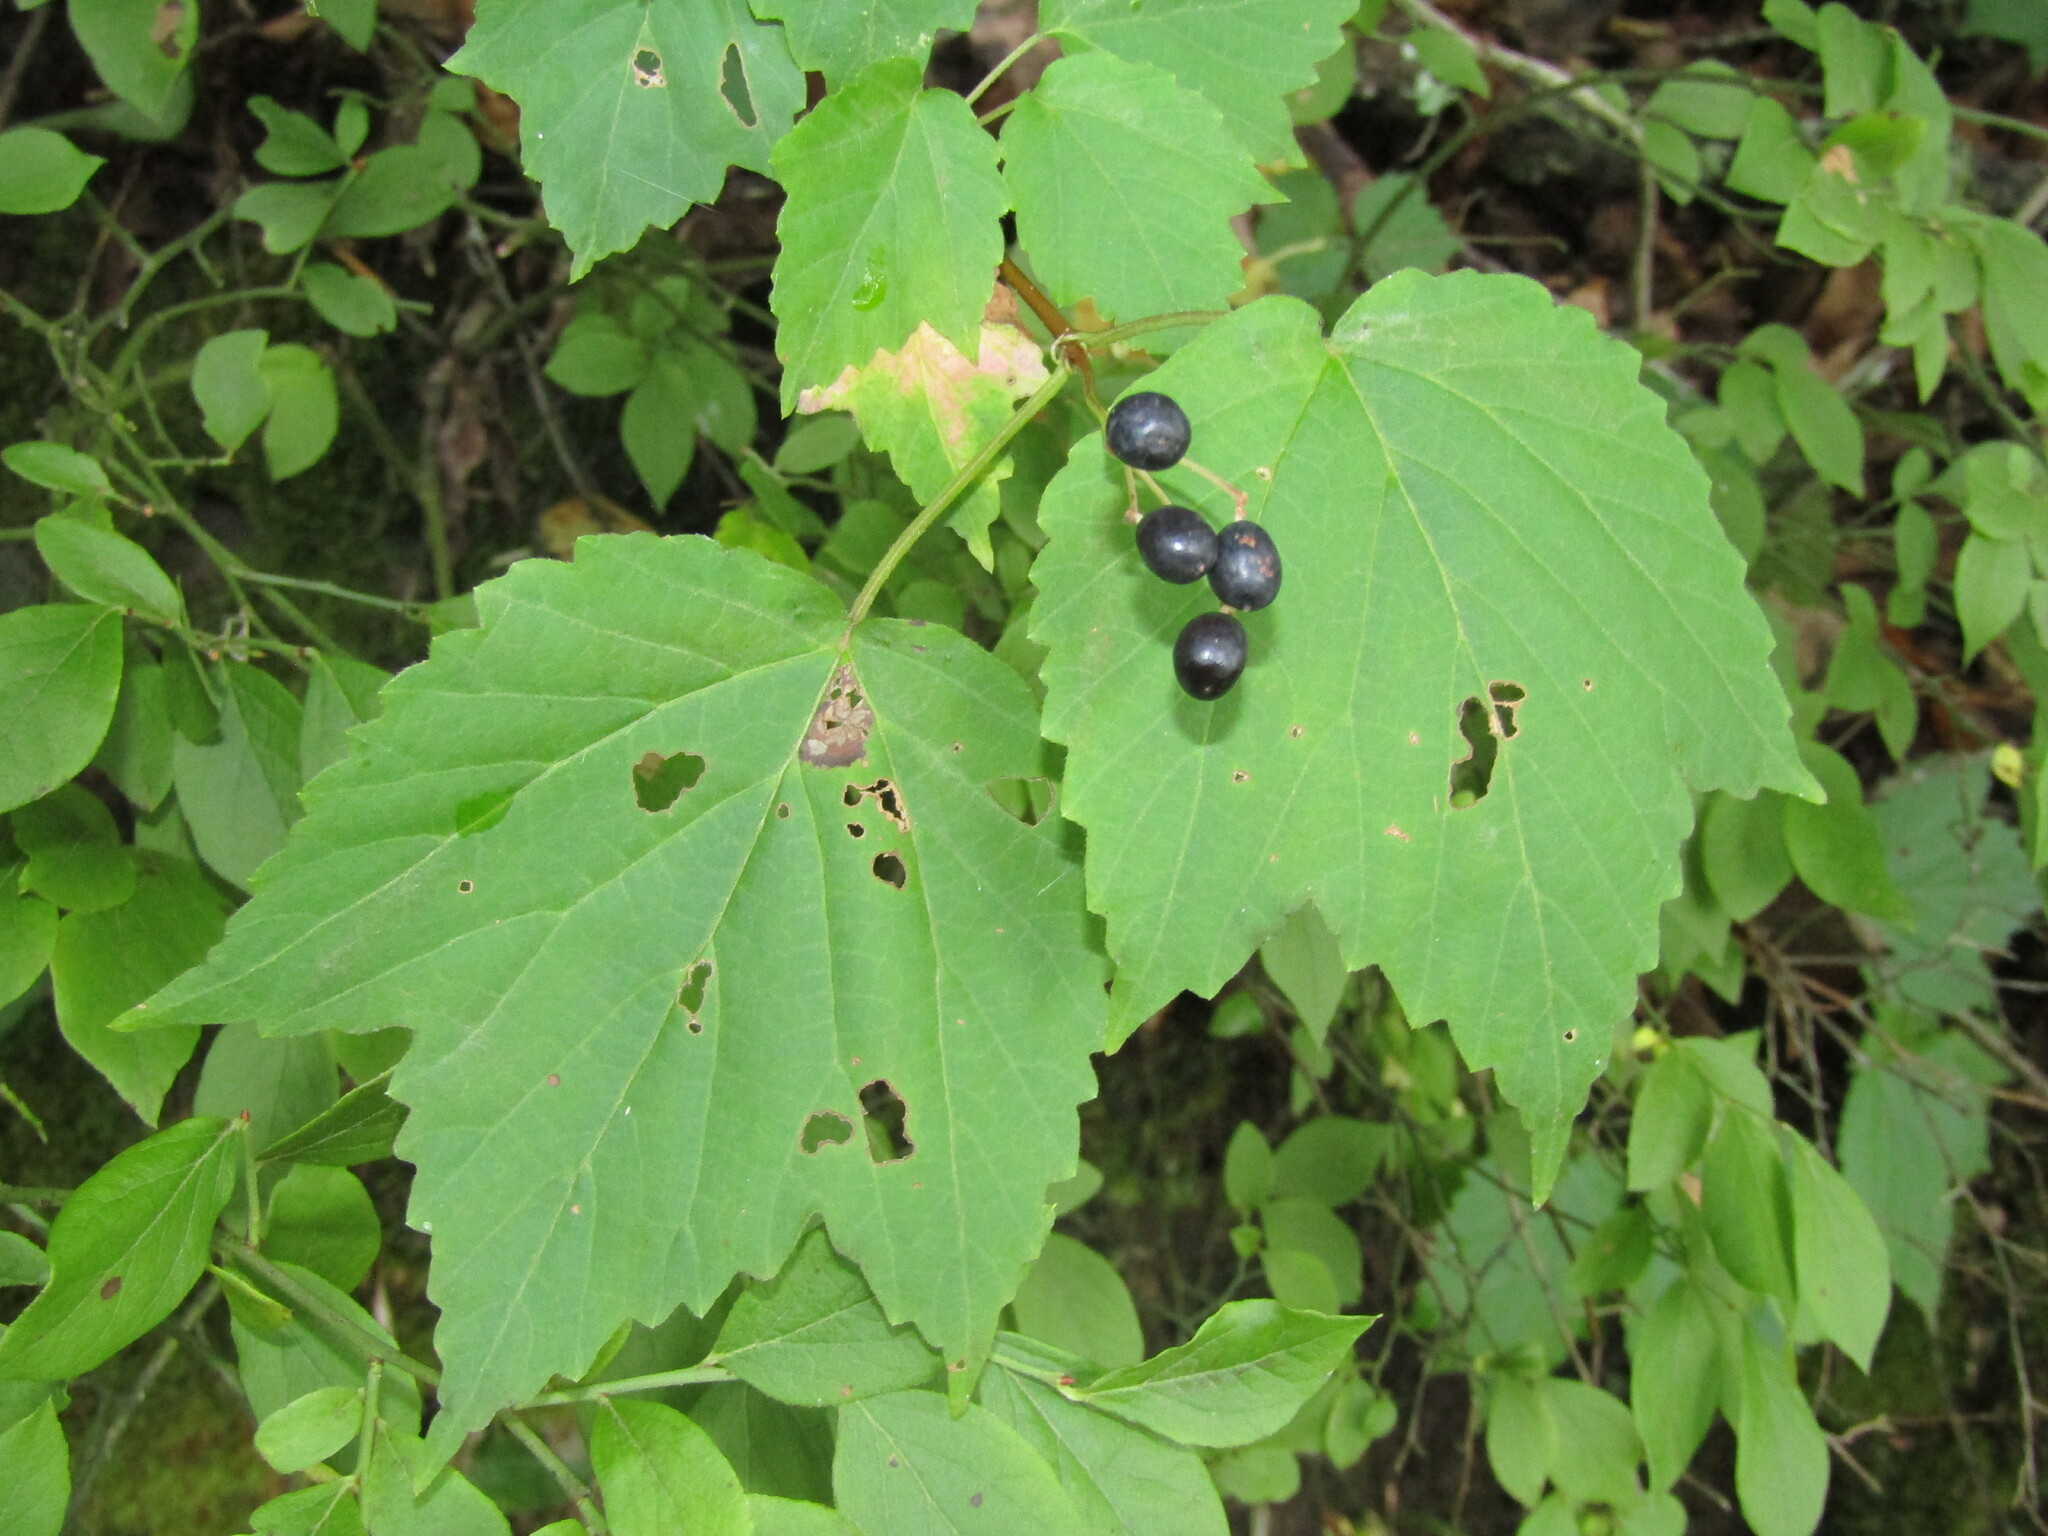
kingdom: Plantae
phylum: Tracheophyta
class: Magnoliopsida
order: Dipsacales
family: Viburnaceae
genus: Viburnum
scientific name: Viburnum acerifolium
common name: Dockmackie
